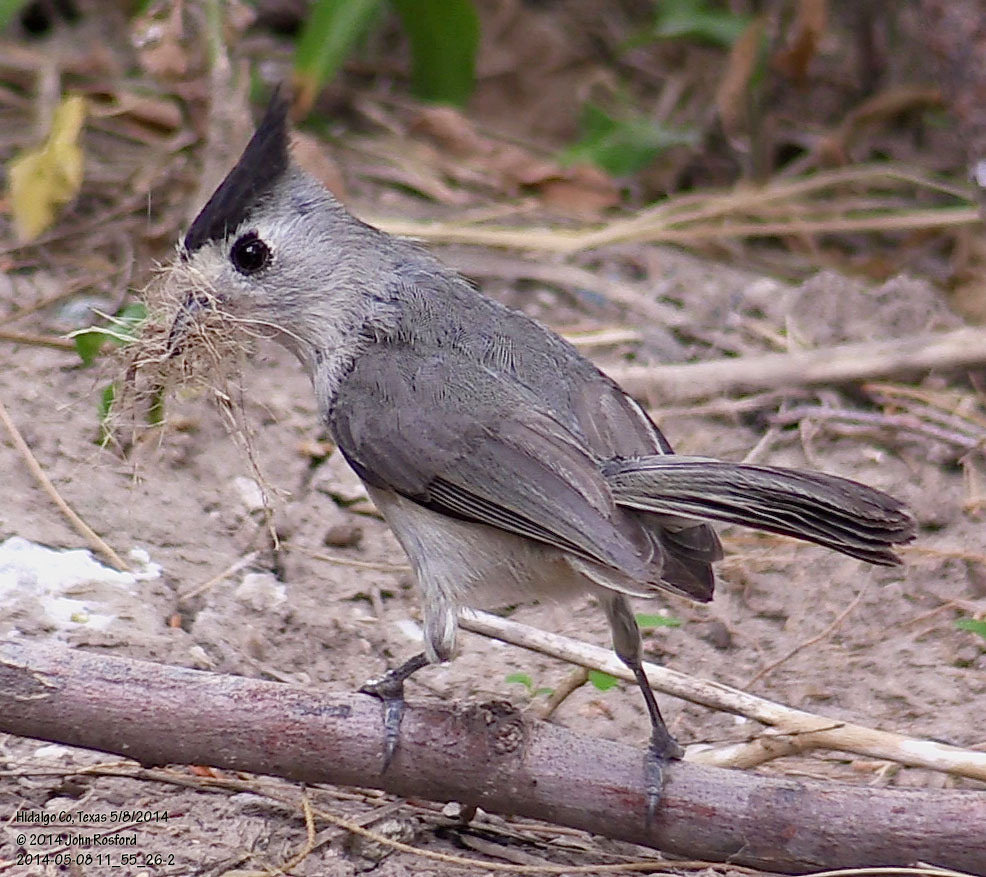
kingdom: Animalia
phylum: Chordata
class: Aves
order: Passeriformes
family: Paridae
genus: Baeolophus
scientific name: Baeolophus atricristatus
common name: Black-crested titmouse
